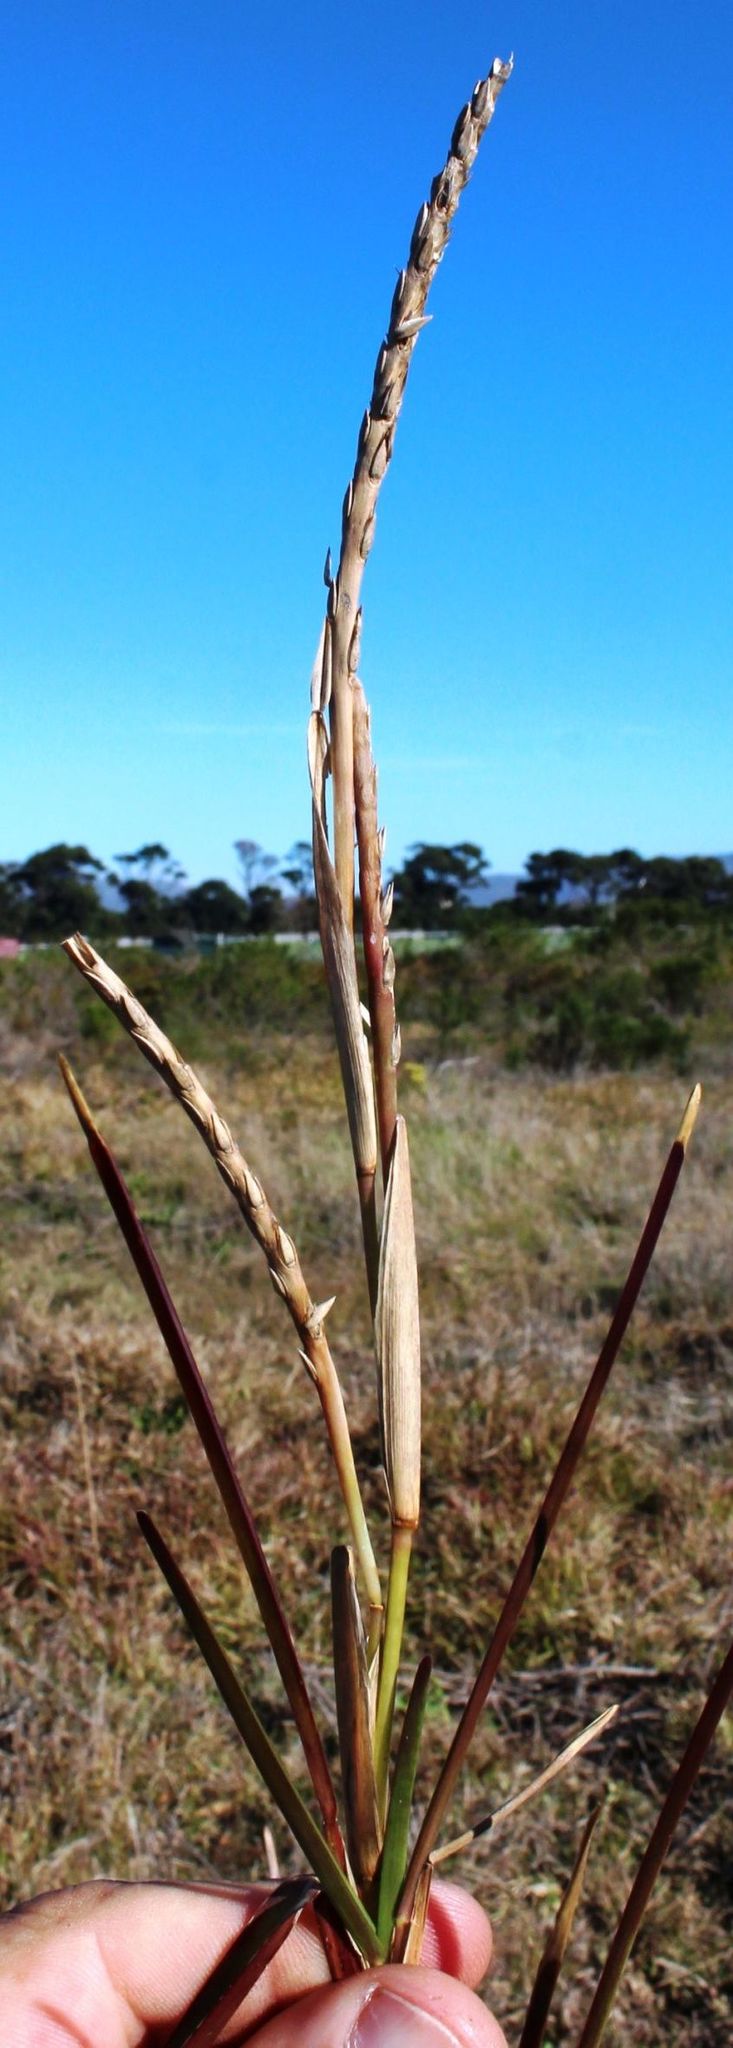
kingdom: Plantae
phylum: Tracheophyta
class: Liliopsida
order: Poales
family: Poaceae
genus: Stenotaphrum
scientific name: Stenotaphrum secundatum
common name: St. augustine grass
